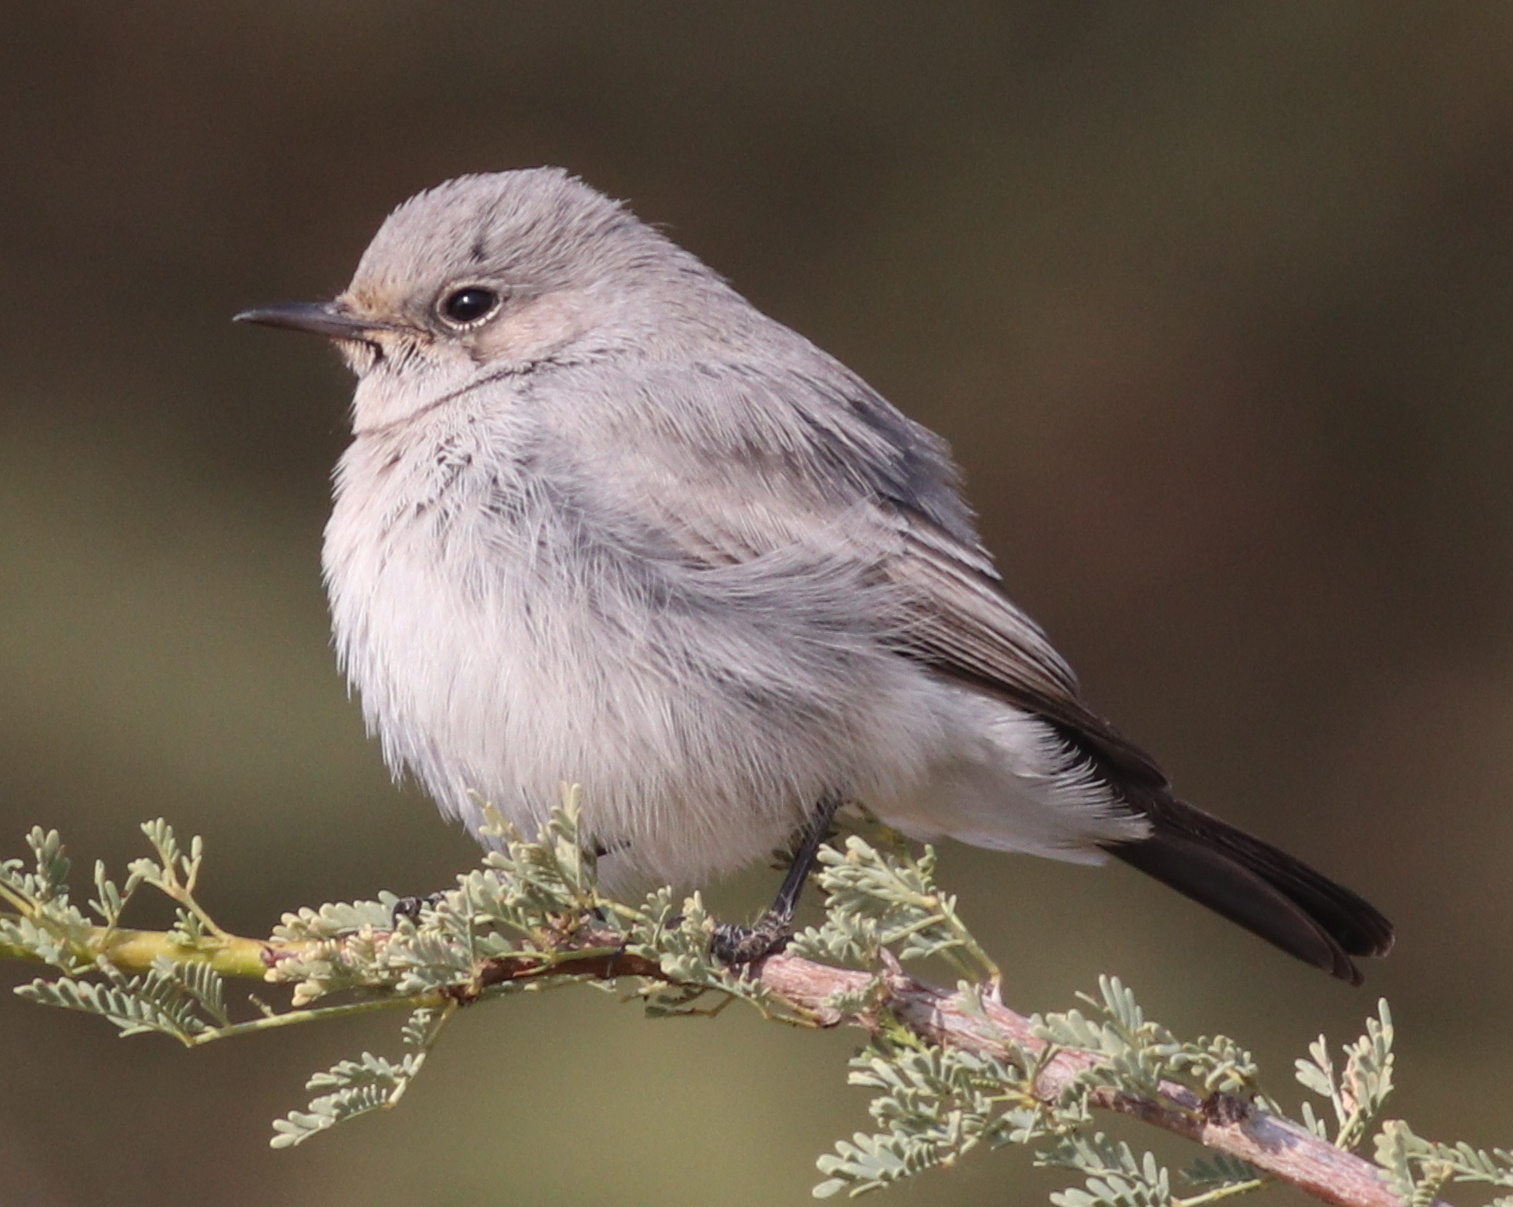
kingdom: Animalia
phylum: Chordata
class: Aves
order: Passeriformes
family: Muscicapidae
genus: Oenanthe
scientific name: Oenanthe melanura
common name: Blackstart
